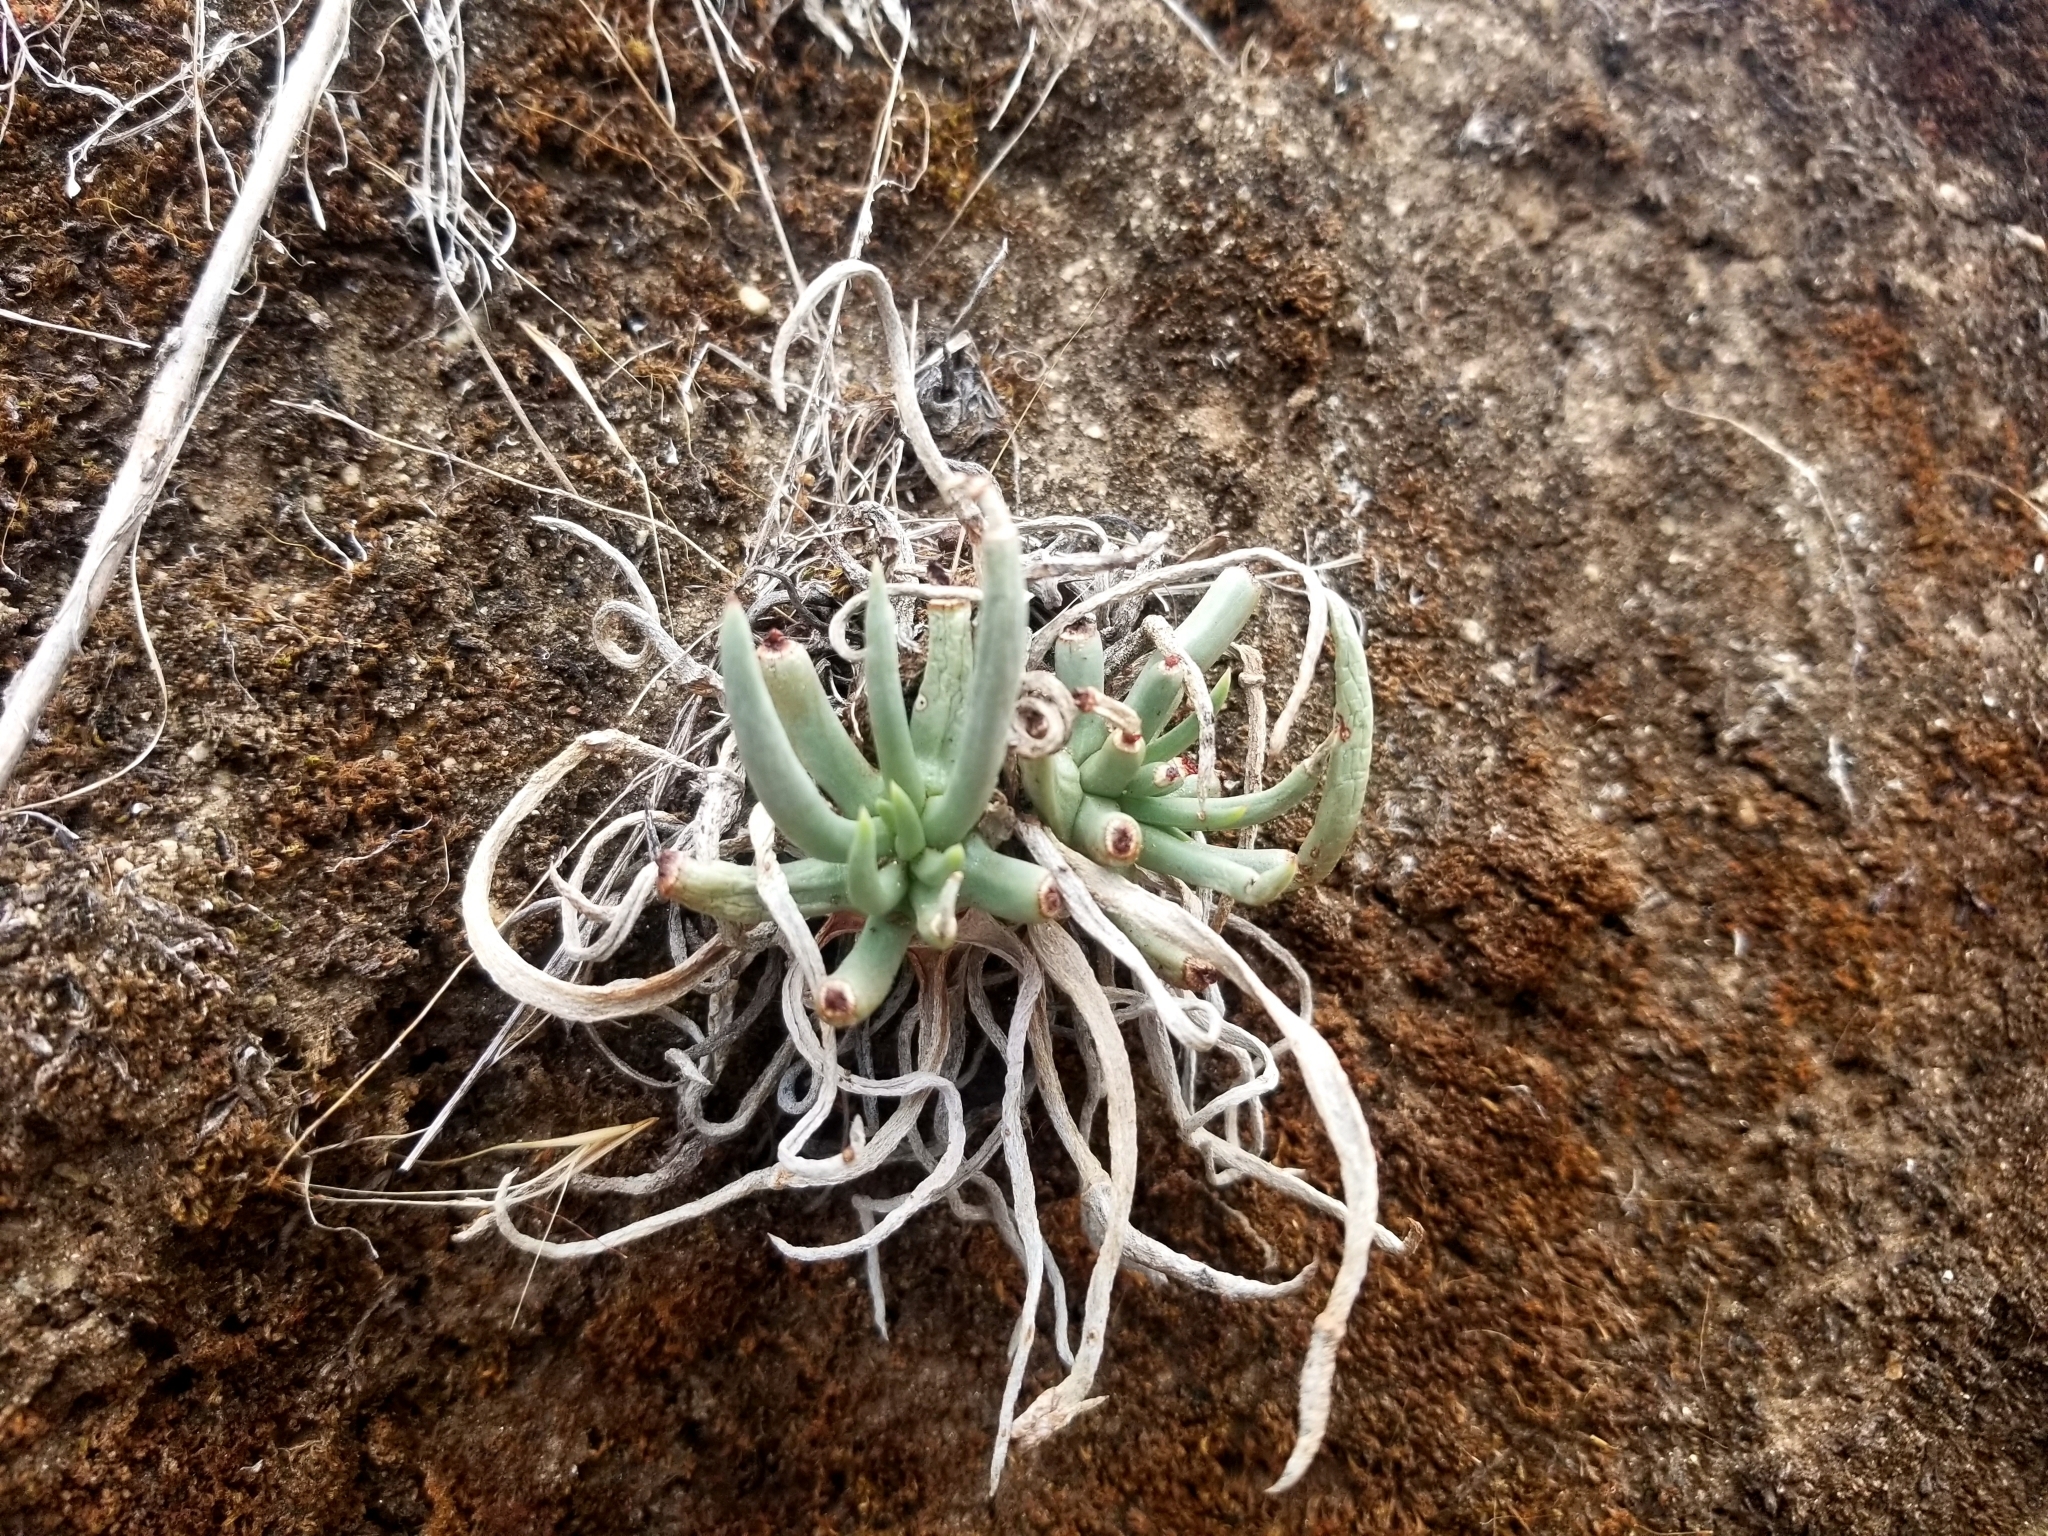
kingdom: Plantae
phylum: Tracheophyta
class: Magnoliopsida
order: Saxifragales
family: Crassulaceae
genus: Dudleya
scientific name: Dudleya edulis
